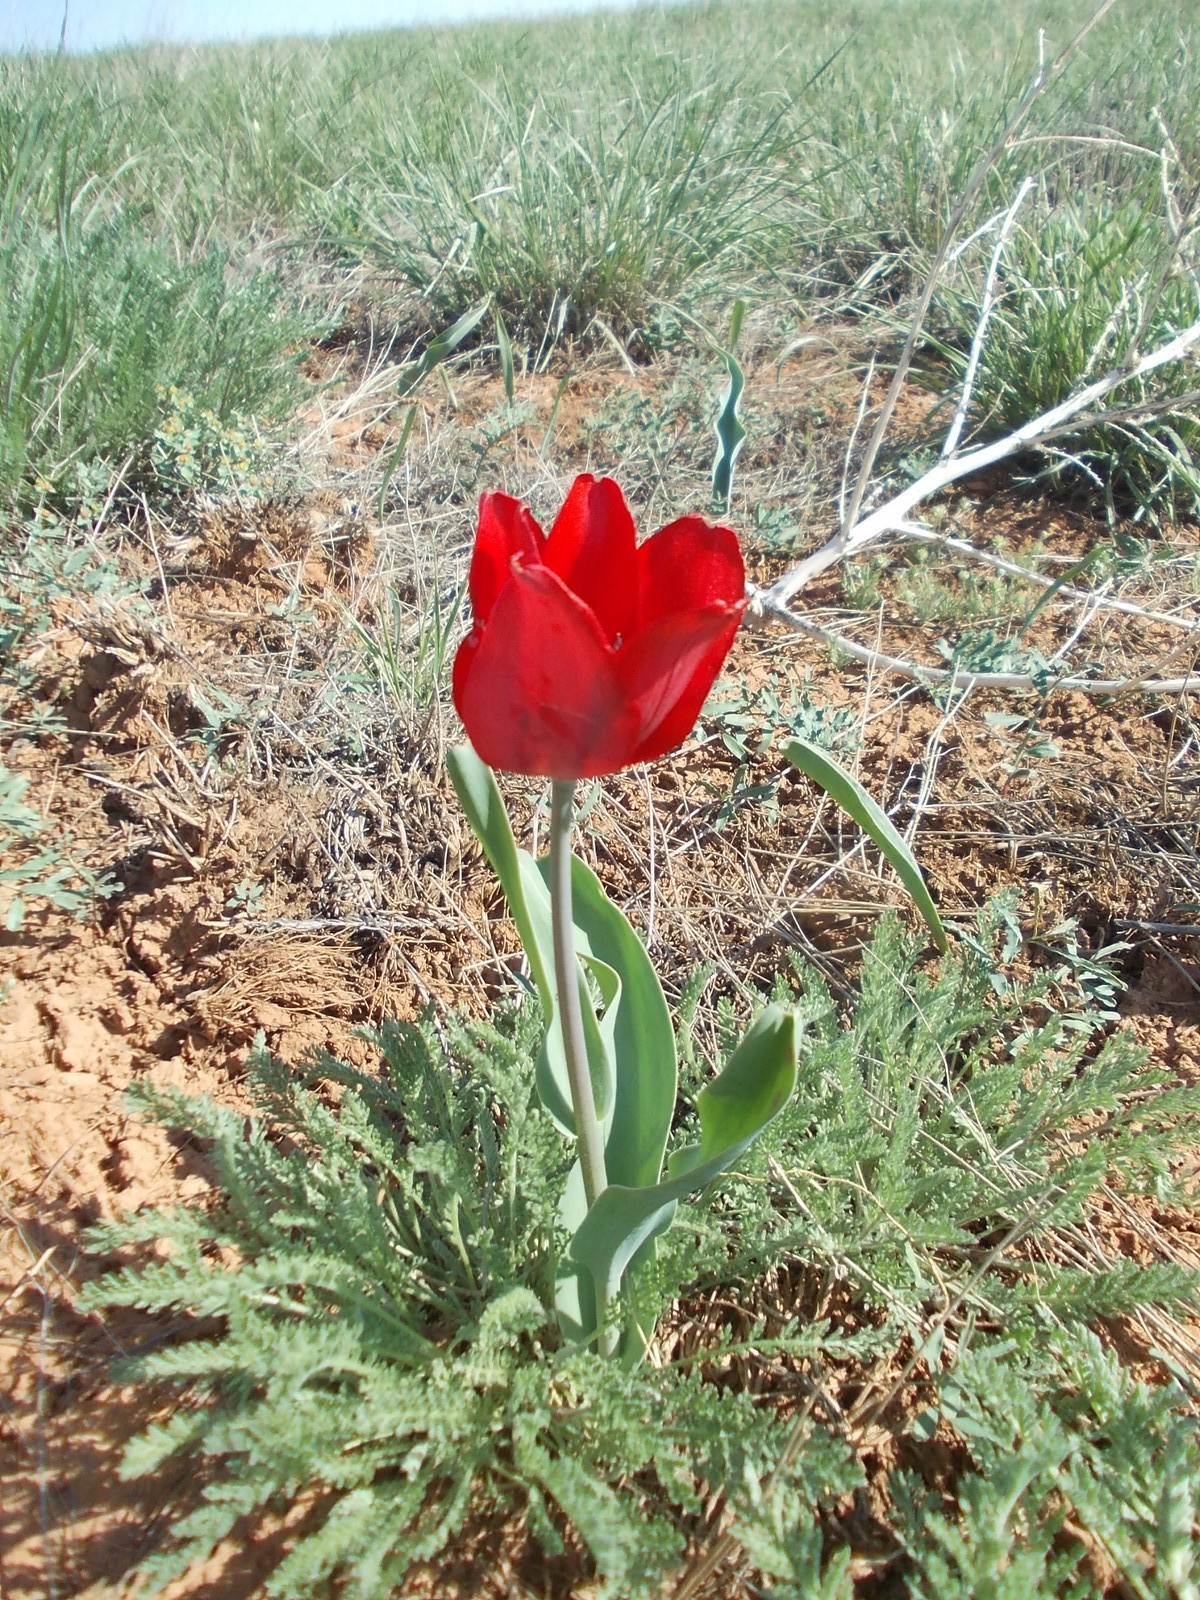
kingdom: Plantae
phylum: Tracheophyta
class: Liliopsida
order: Liliales
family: Liliaceae
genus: Tulipa
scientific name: Tulipa suaveolens
